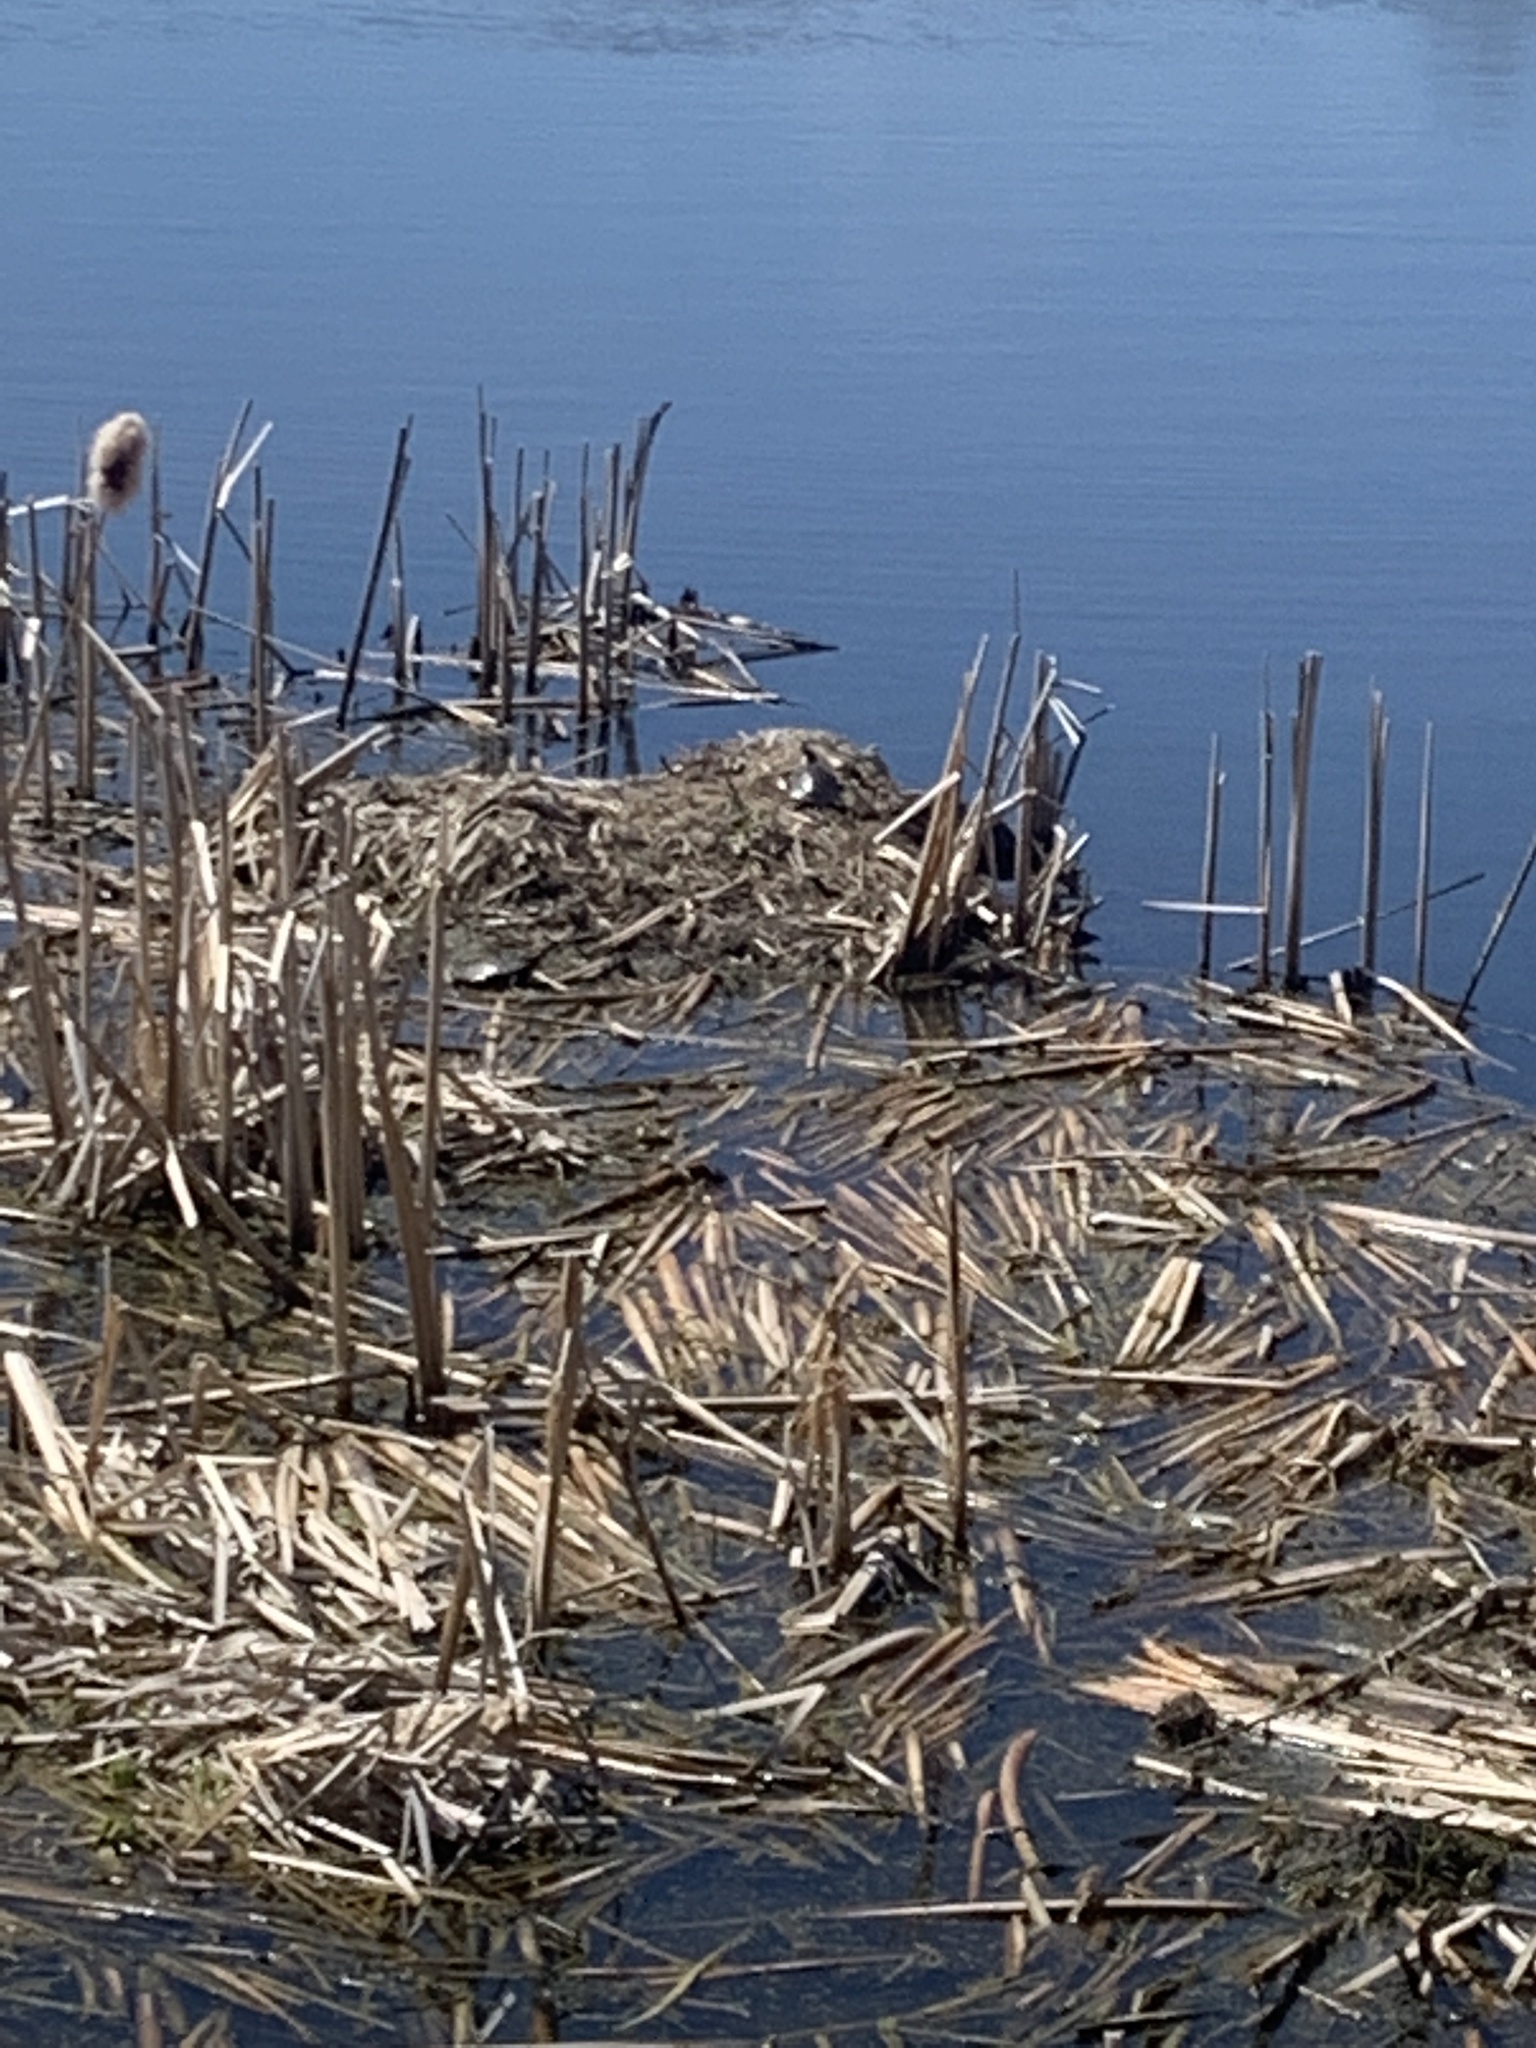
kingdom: Animalia
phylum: Chordata
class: Testudines
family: Emydidae
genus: Chrysemys
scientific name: Chrysemys picta
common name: Painted turtle
